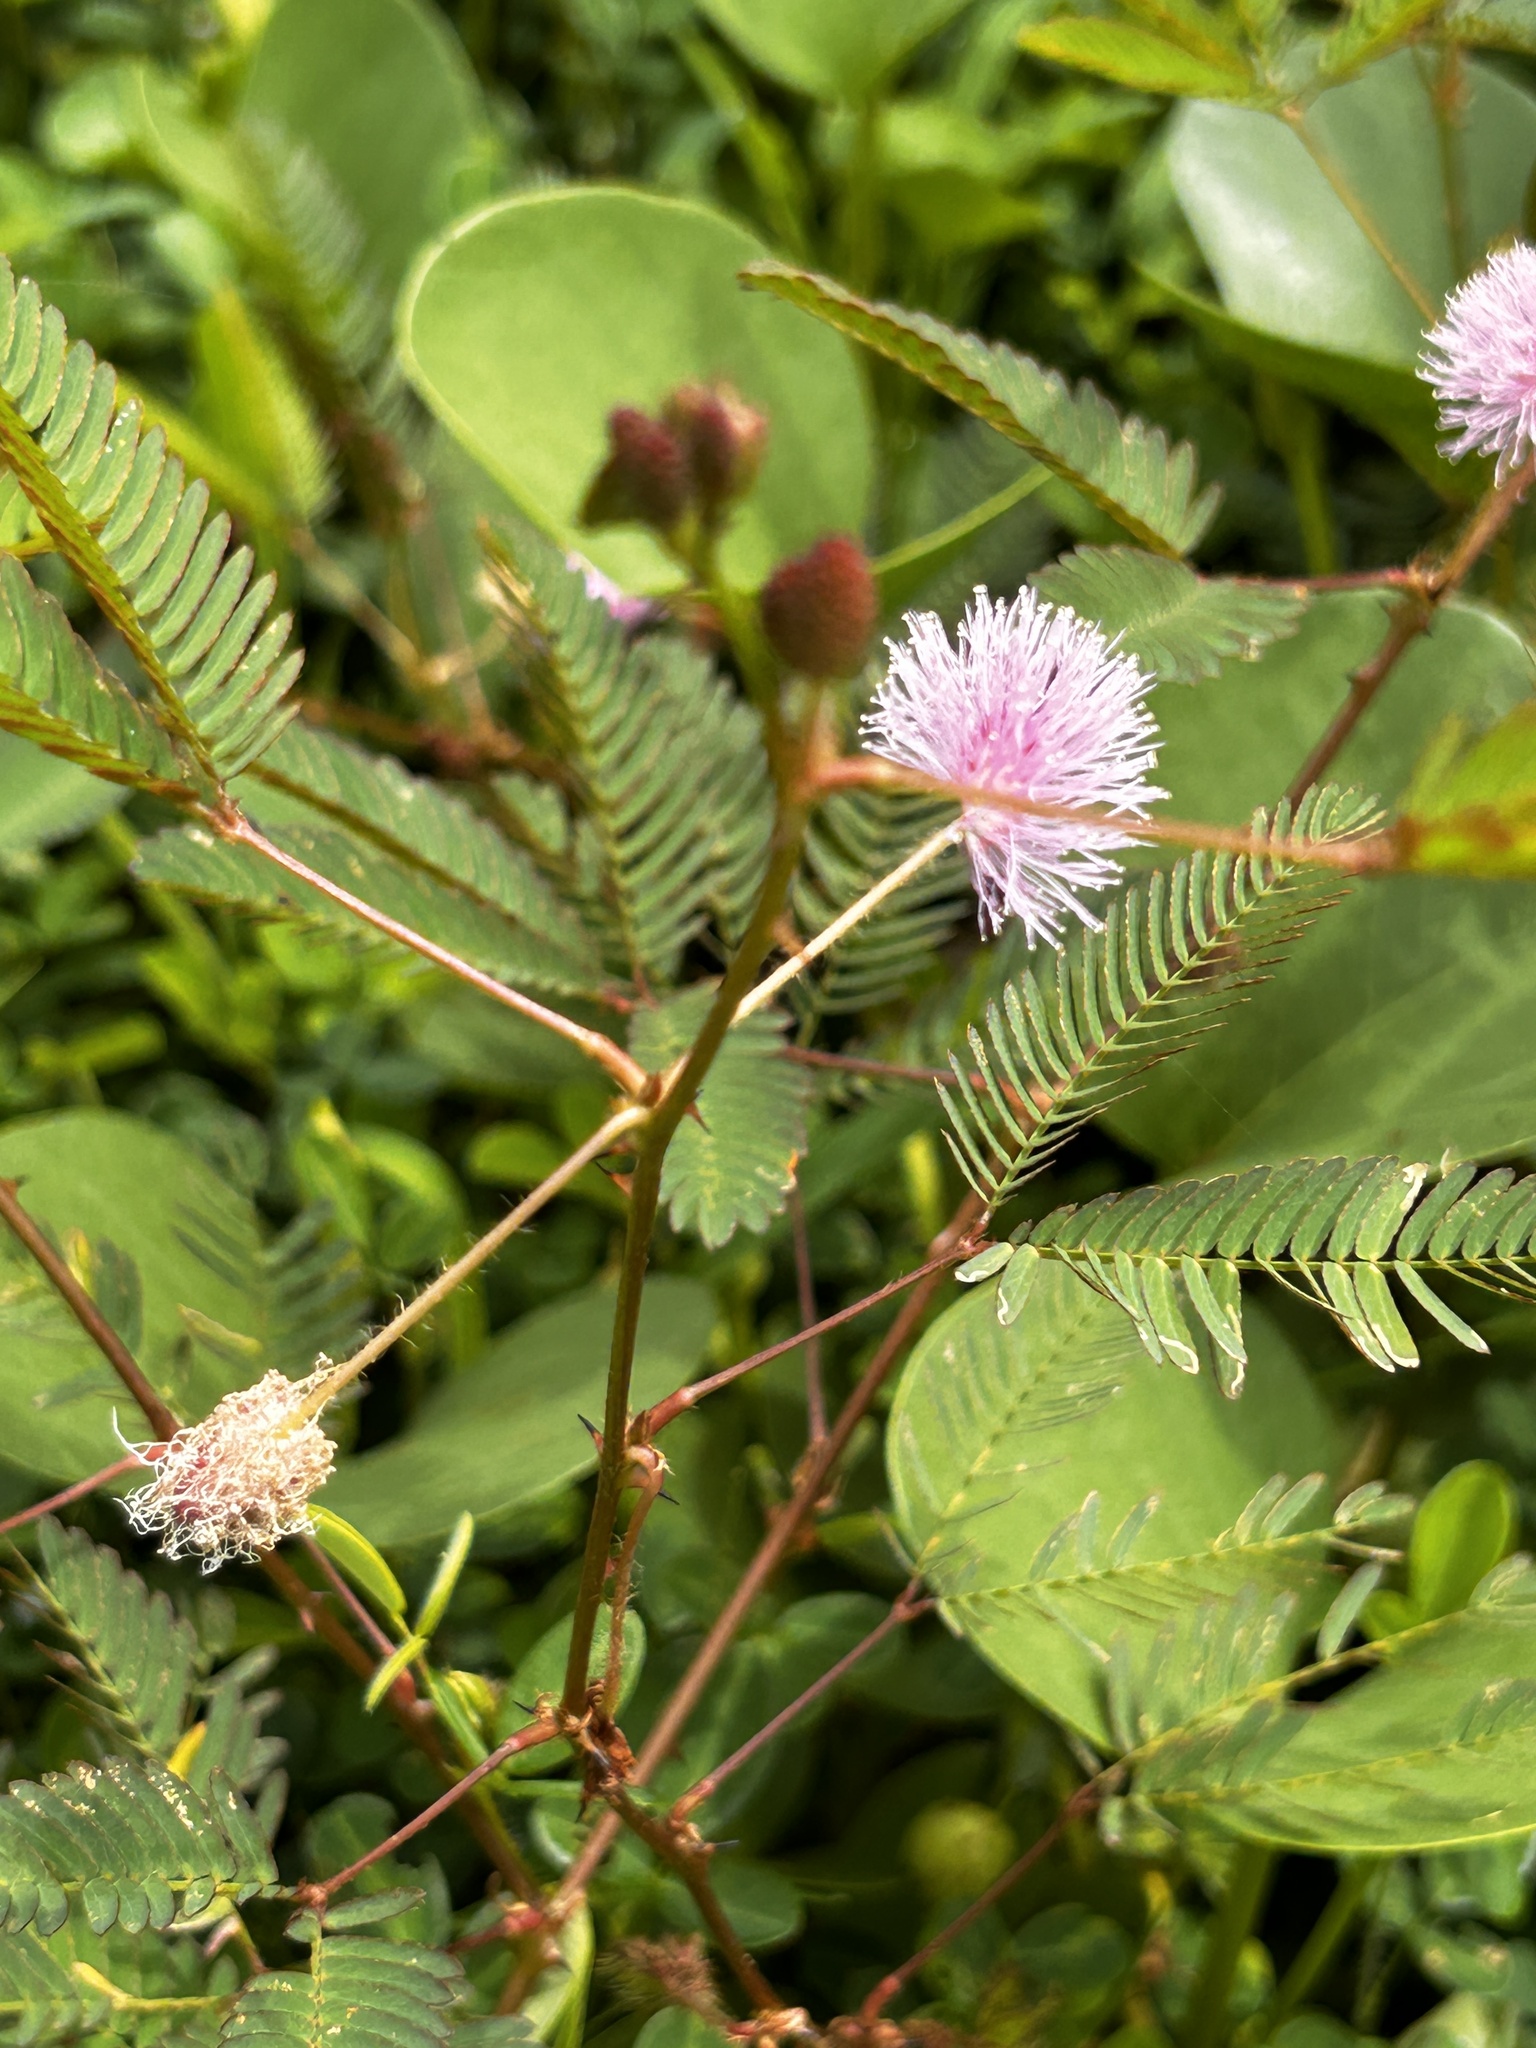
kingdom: Plantae
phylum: Tracheophyta
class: Magnoliopsida
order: Fabales
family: Fabaceae
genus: Mimosa
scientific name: Mimosa pudica
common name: Sensitive plant
